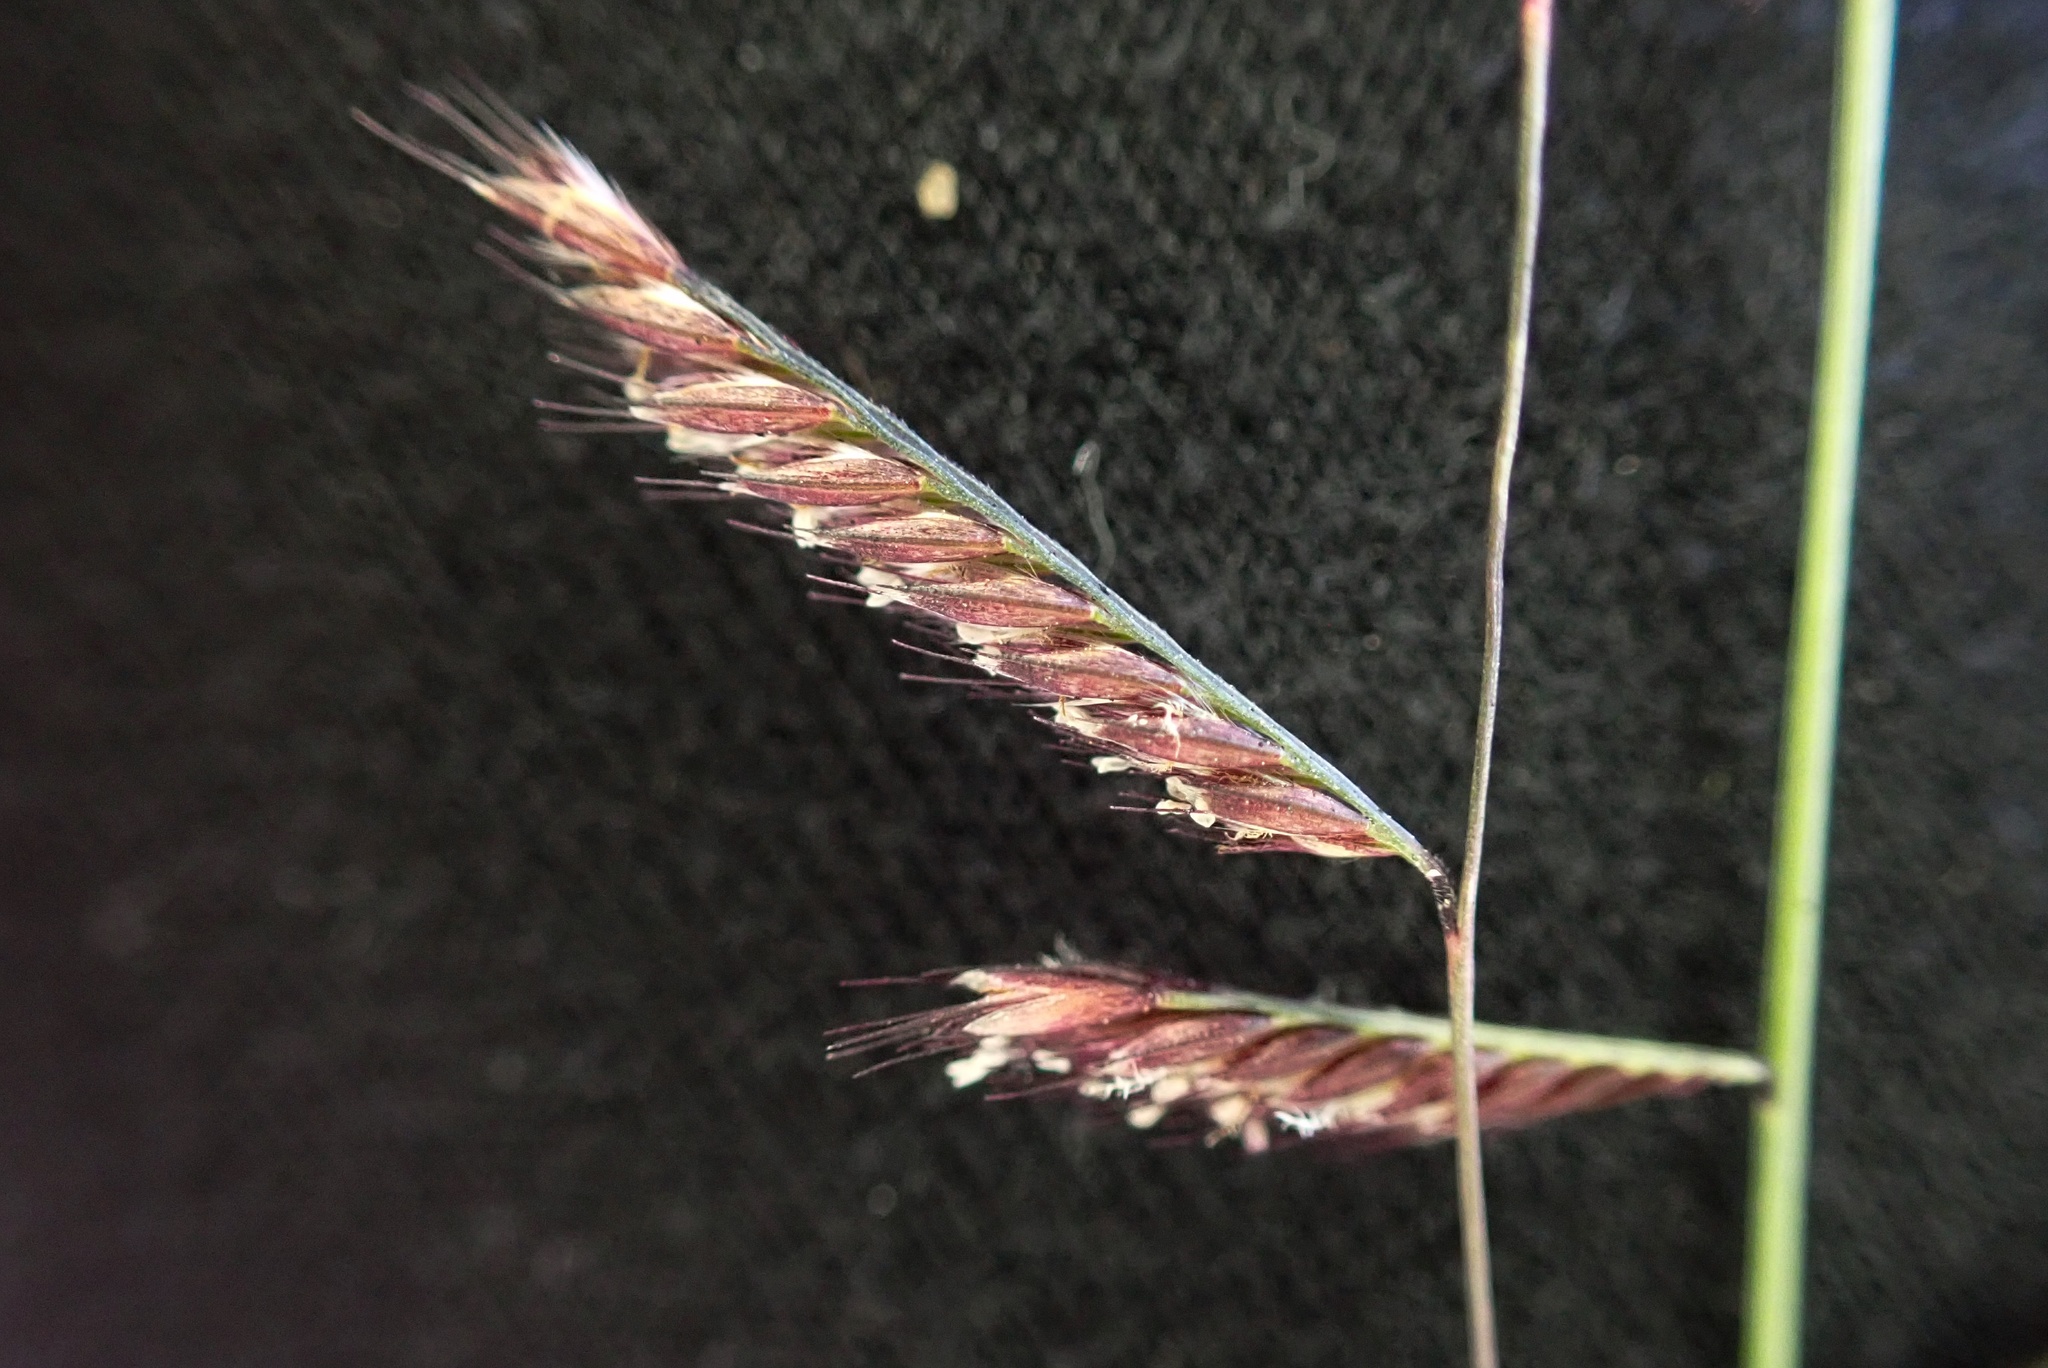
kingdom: Plantae
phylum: Tracheophyta
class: Liliopsida
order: Poales
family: Poaceae
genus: Bouteloua
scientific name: Bouteloua barbata
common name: Six-weeks grama
